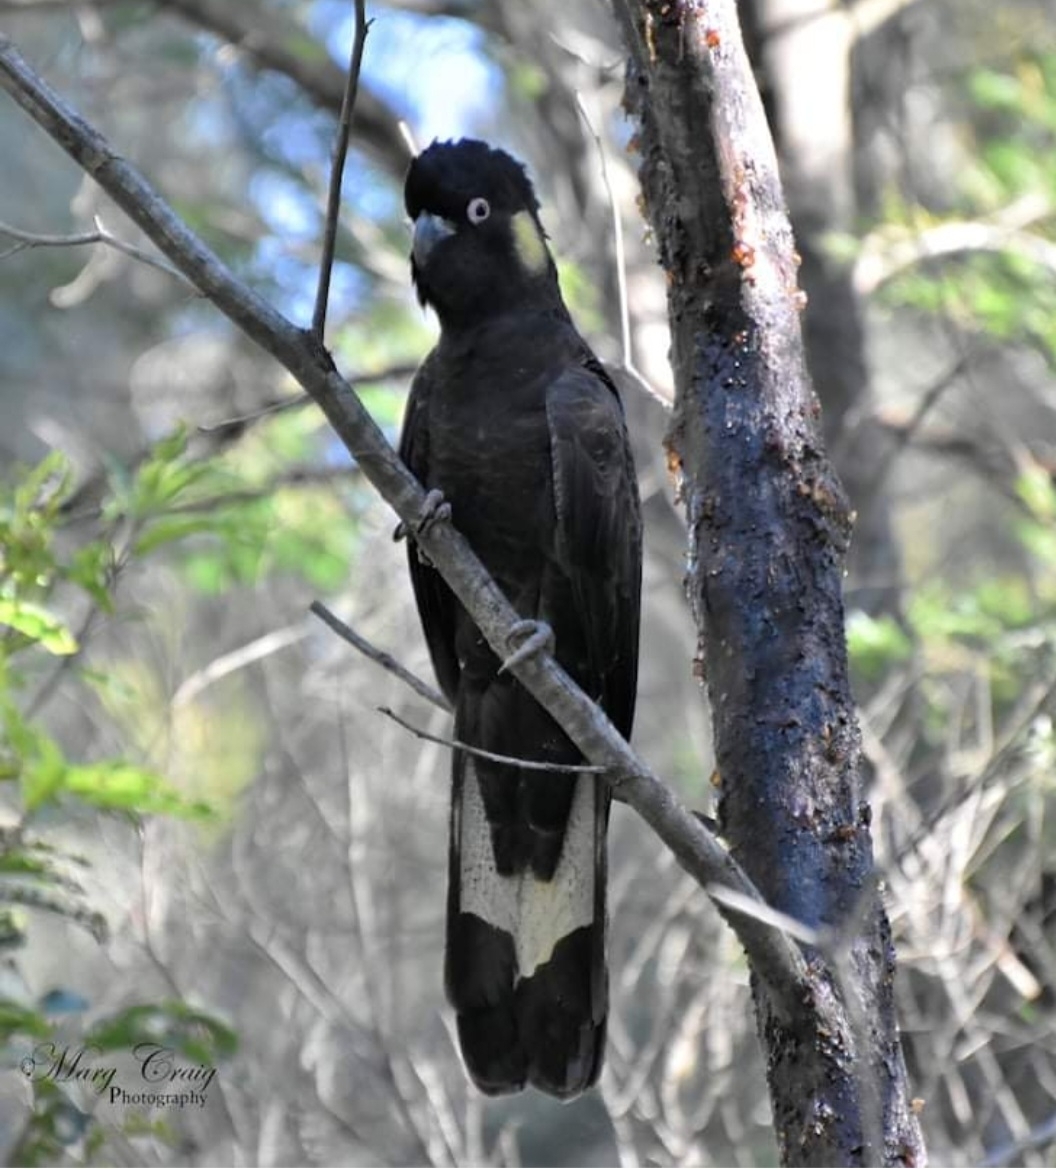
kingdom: Animalia
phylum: Chordata
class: Aves
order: Psittaciformes
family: Cacatuidae
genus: Zanda
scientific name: Zanda funerea
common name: Yellow-tailed black-cockatoo
